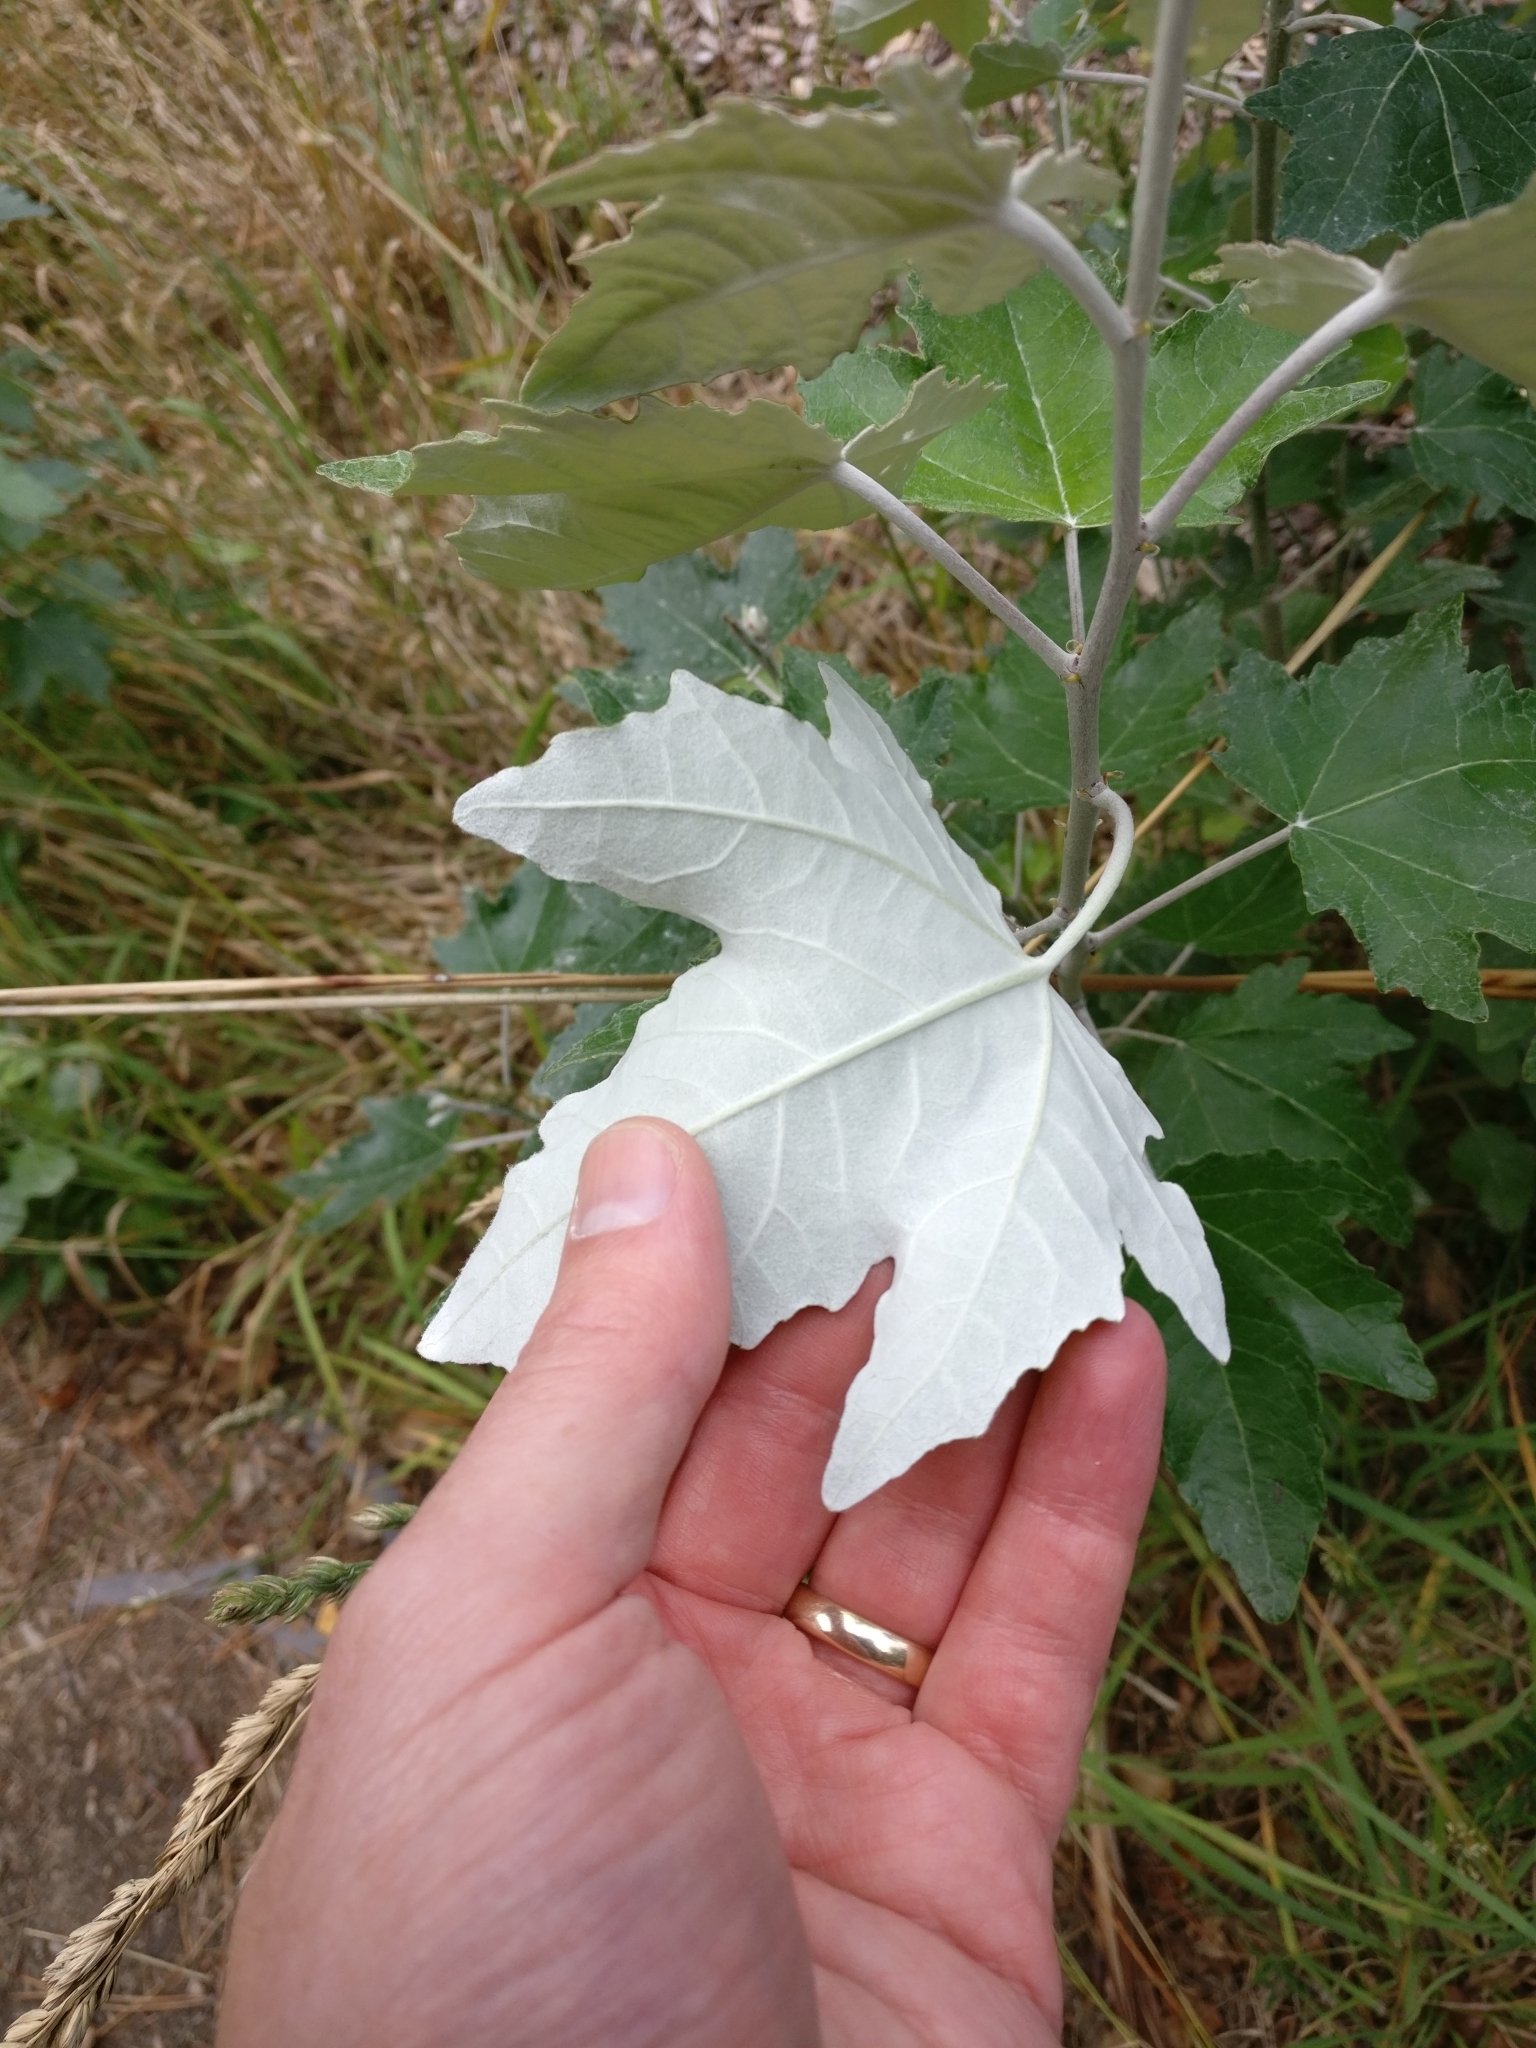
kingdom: Plantae
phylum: Tracheophyta
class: Magnoliopsida
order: Malpighiales
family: Salicaceae
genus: Populus
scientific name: Populus alba
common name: White poplar
